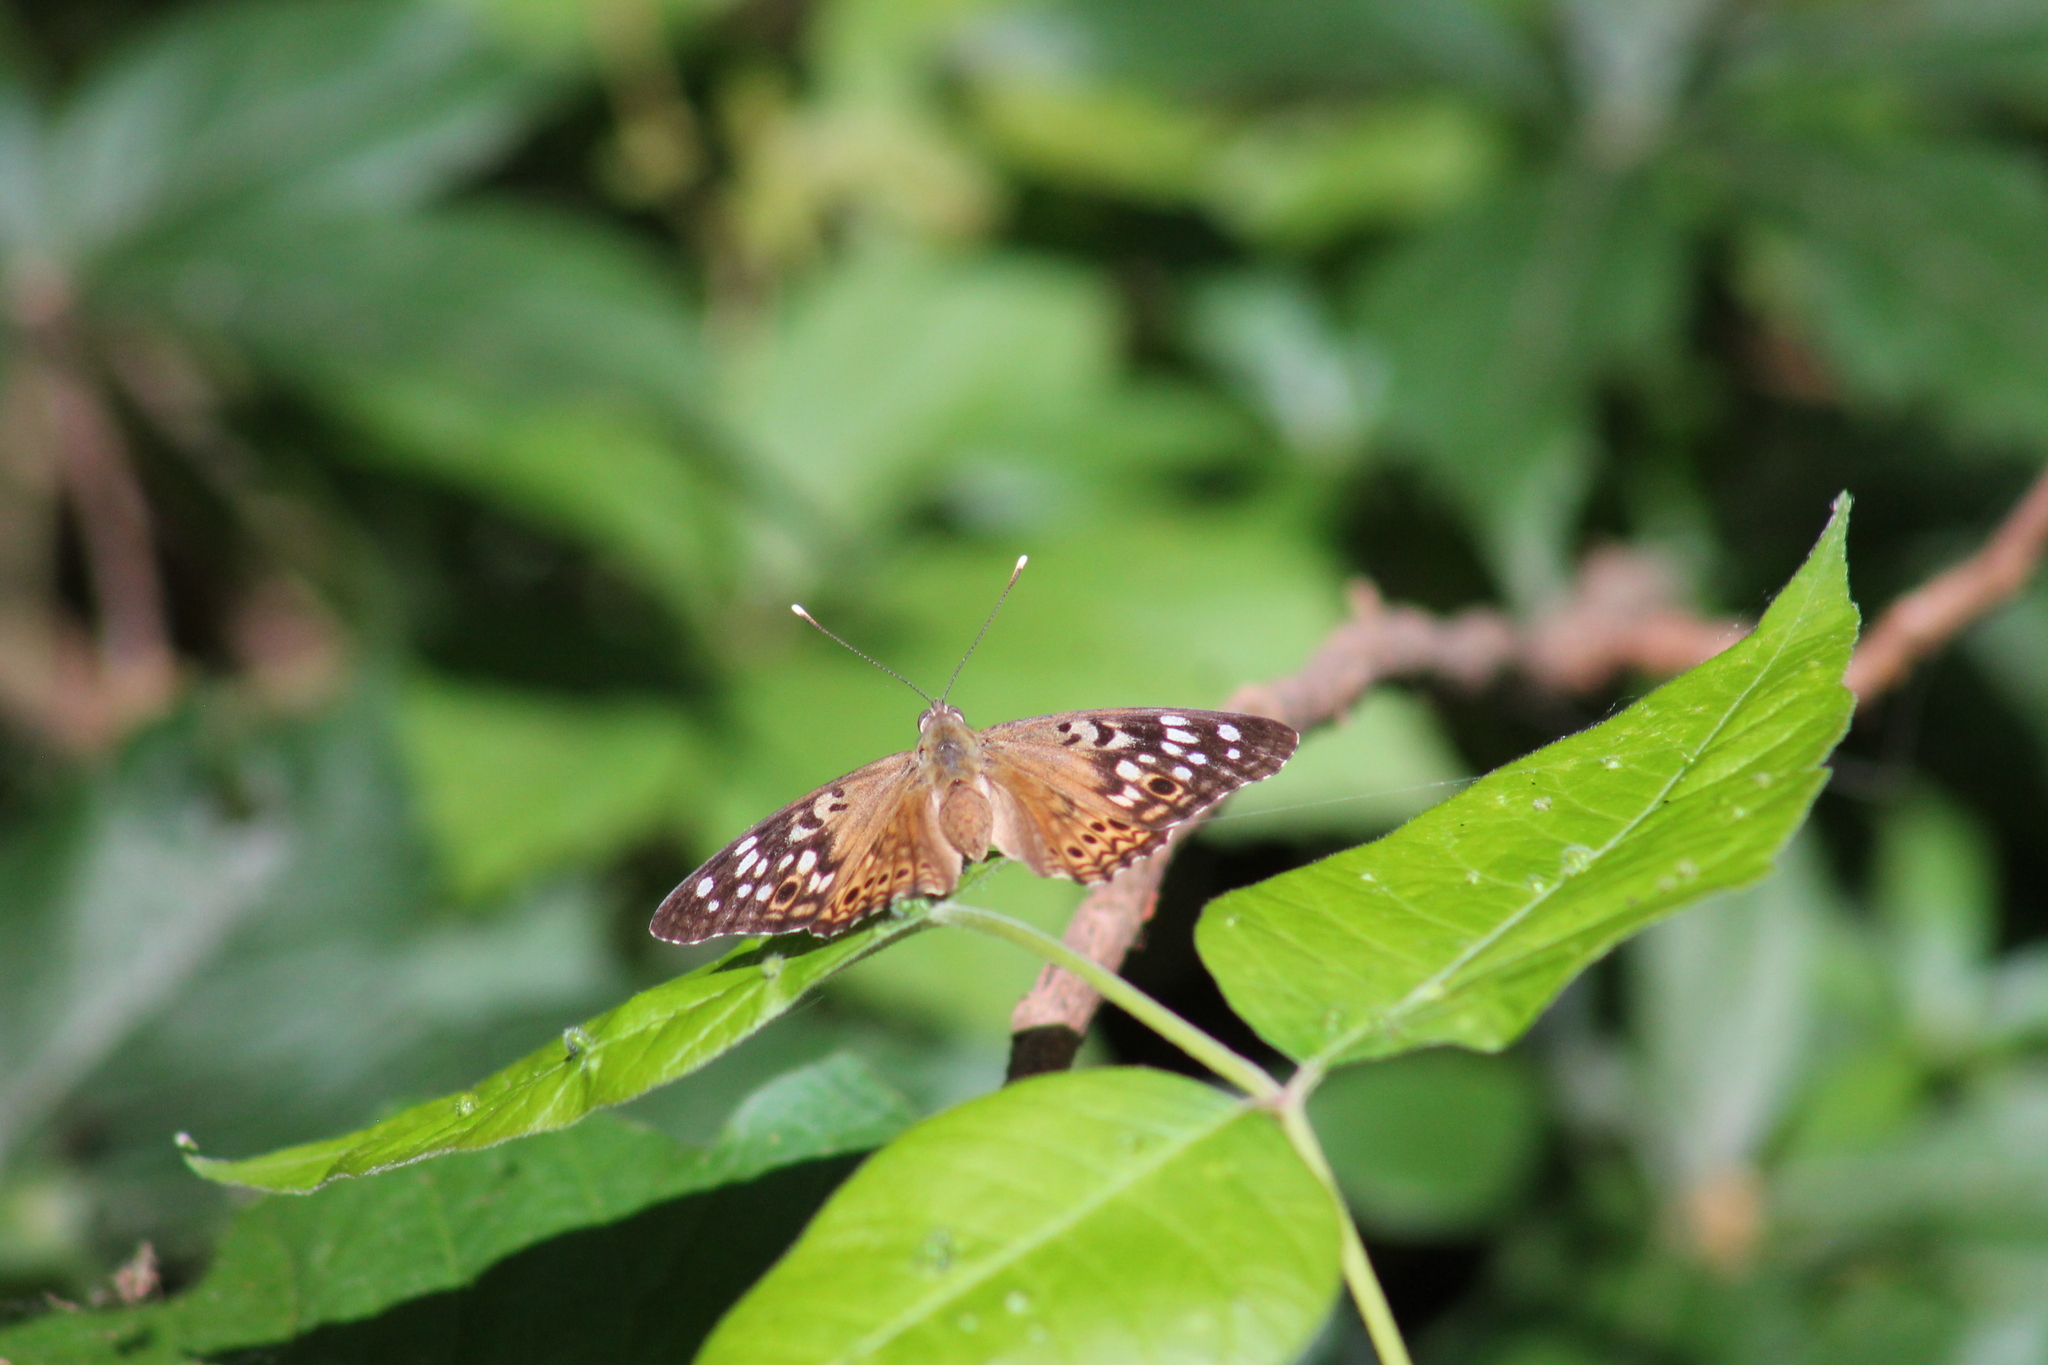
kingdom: Animalia
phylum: Arthropoda
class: Insecta
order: Lepidoptera
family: Nymphalidae
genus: Asterocampa
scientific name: Asterocampa celtis
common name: Hackberry emperor
